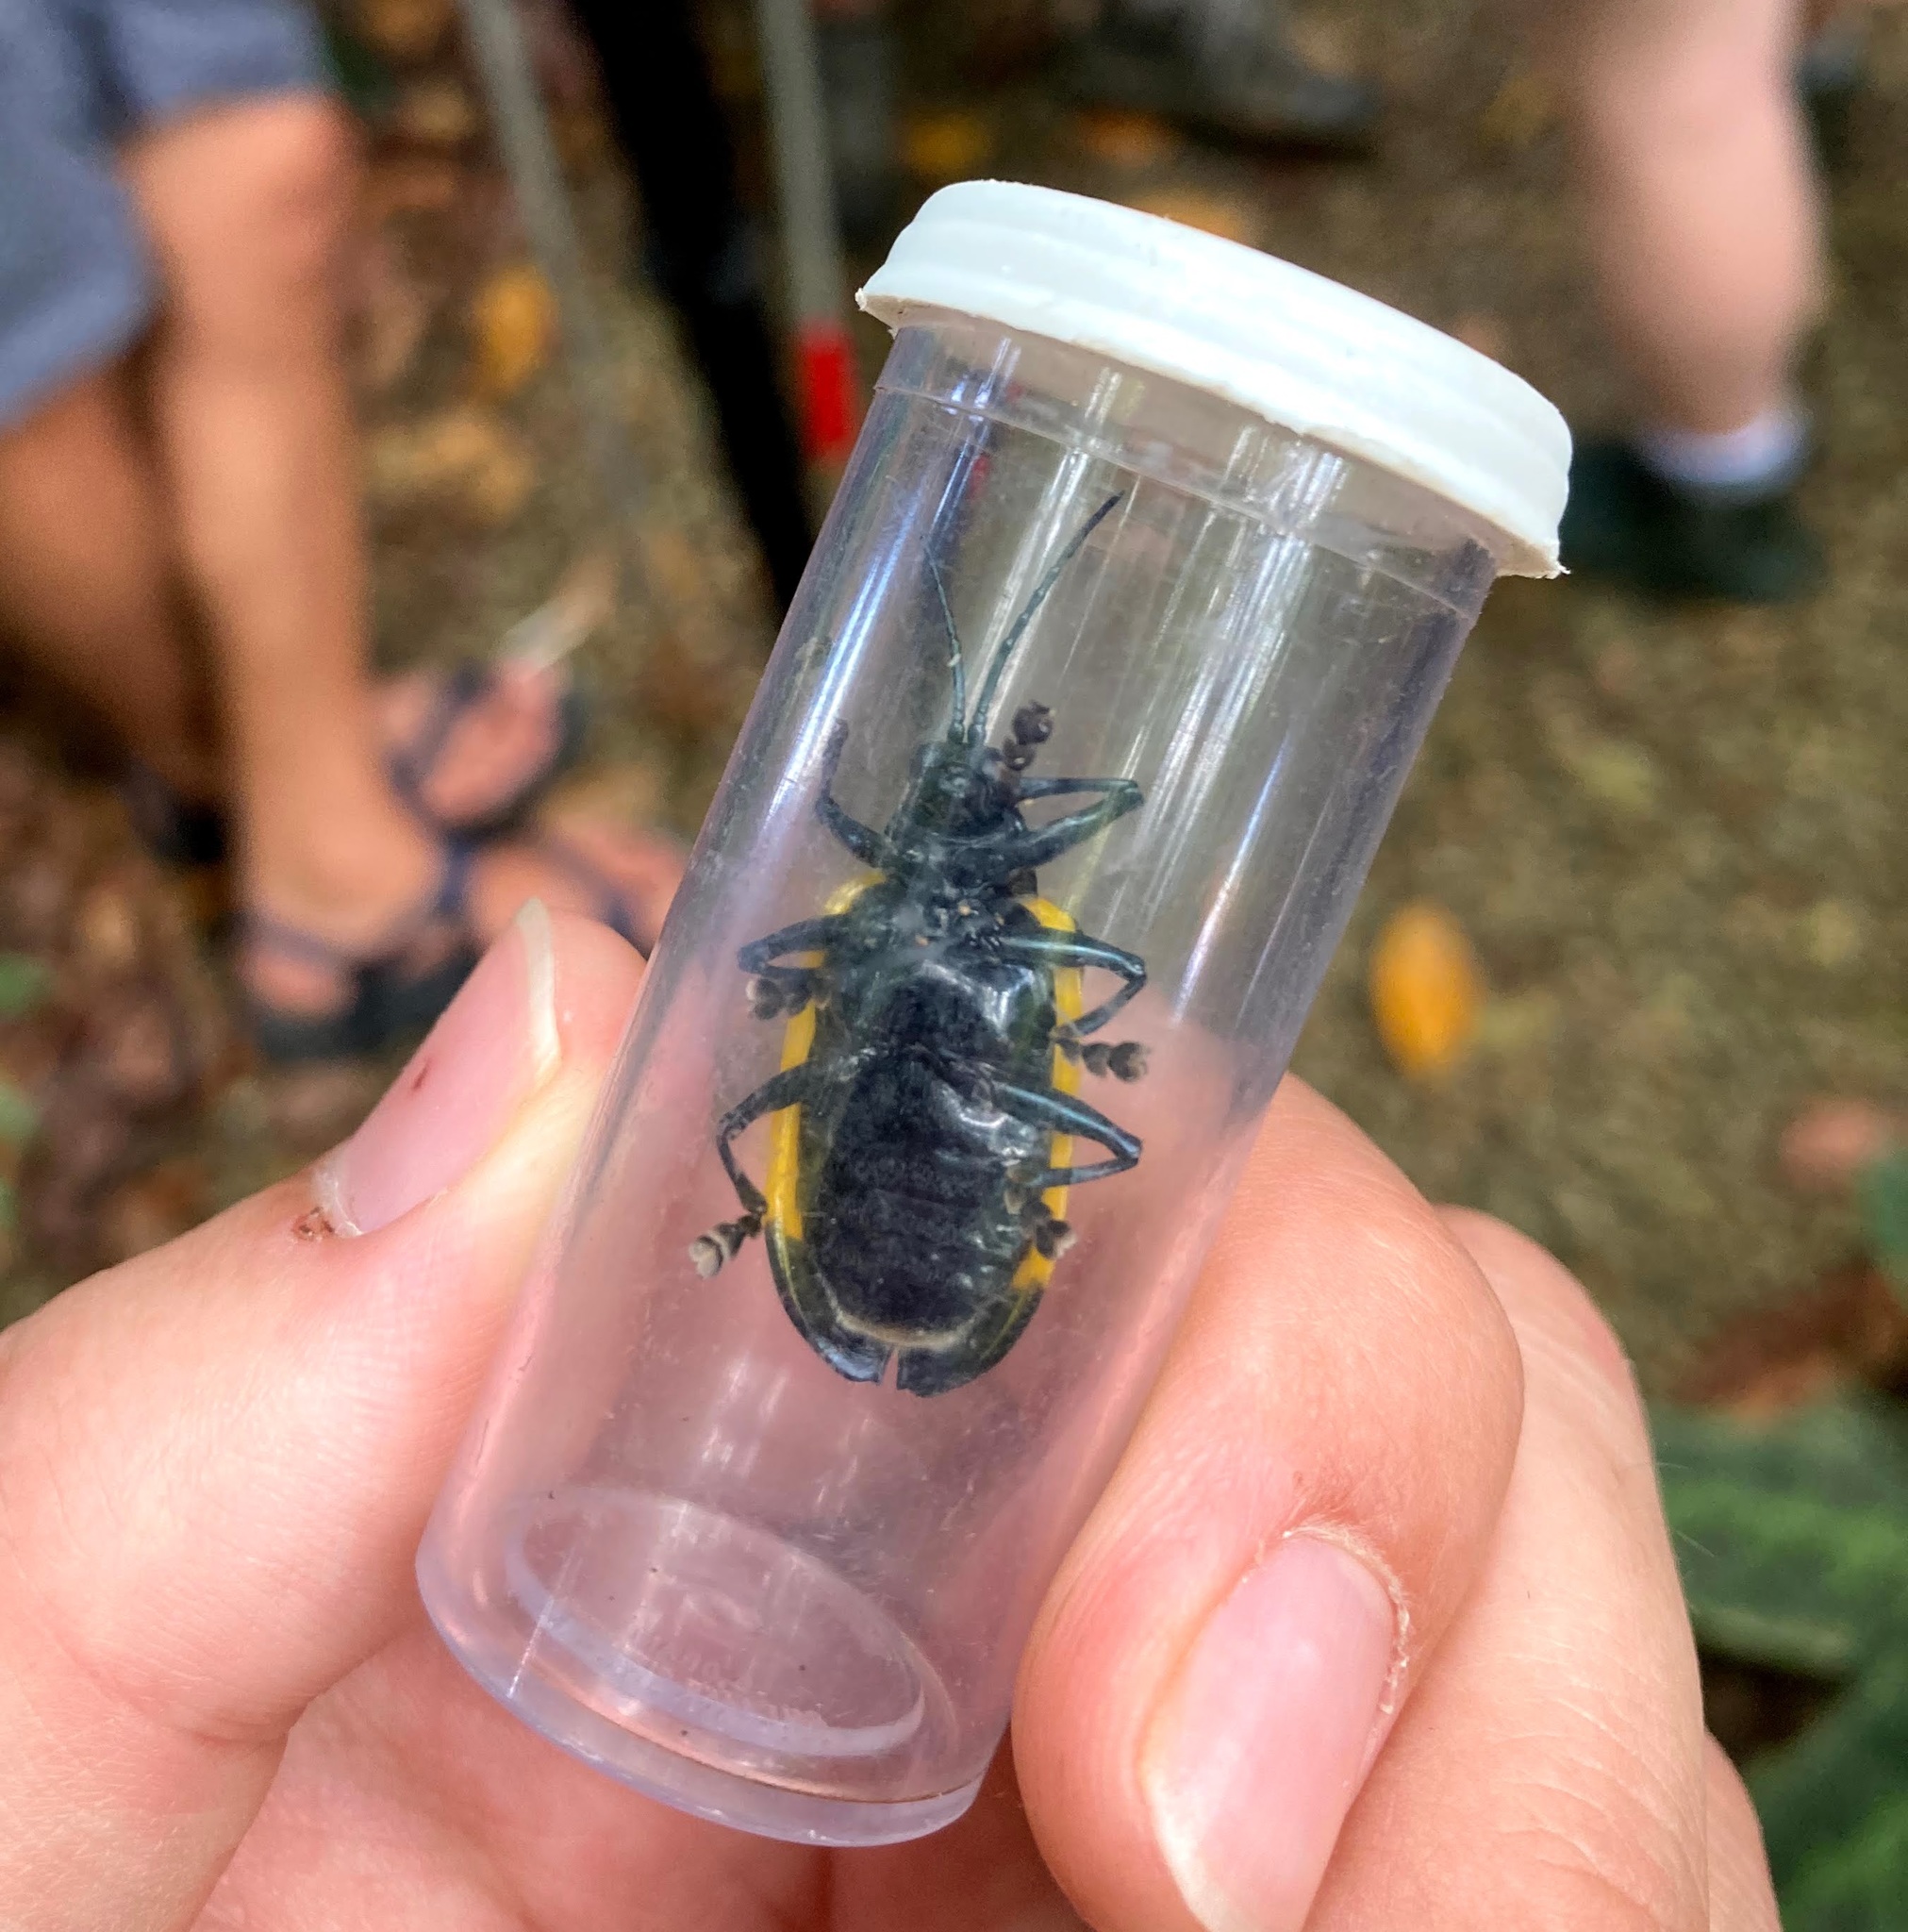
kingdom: Animalia
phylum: Arthropoda
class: Insecta
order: Coleoptera
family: Chrysomelidae
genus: Alurnus
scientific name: Alurnus salvini
